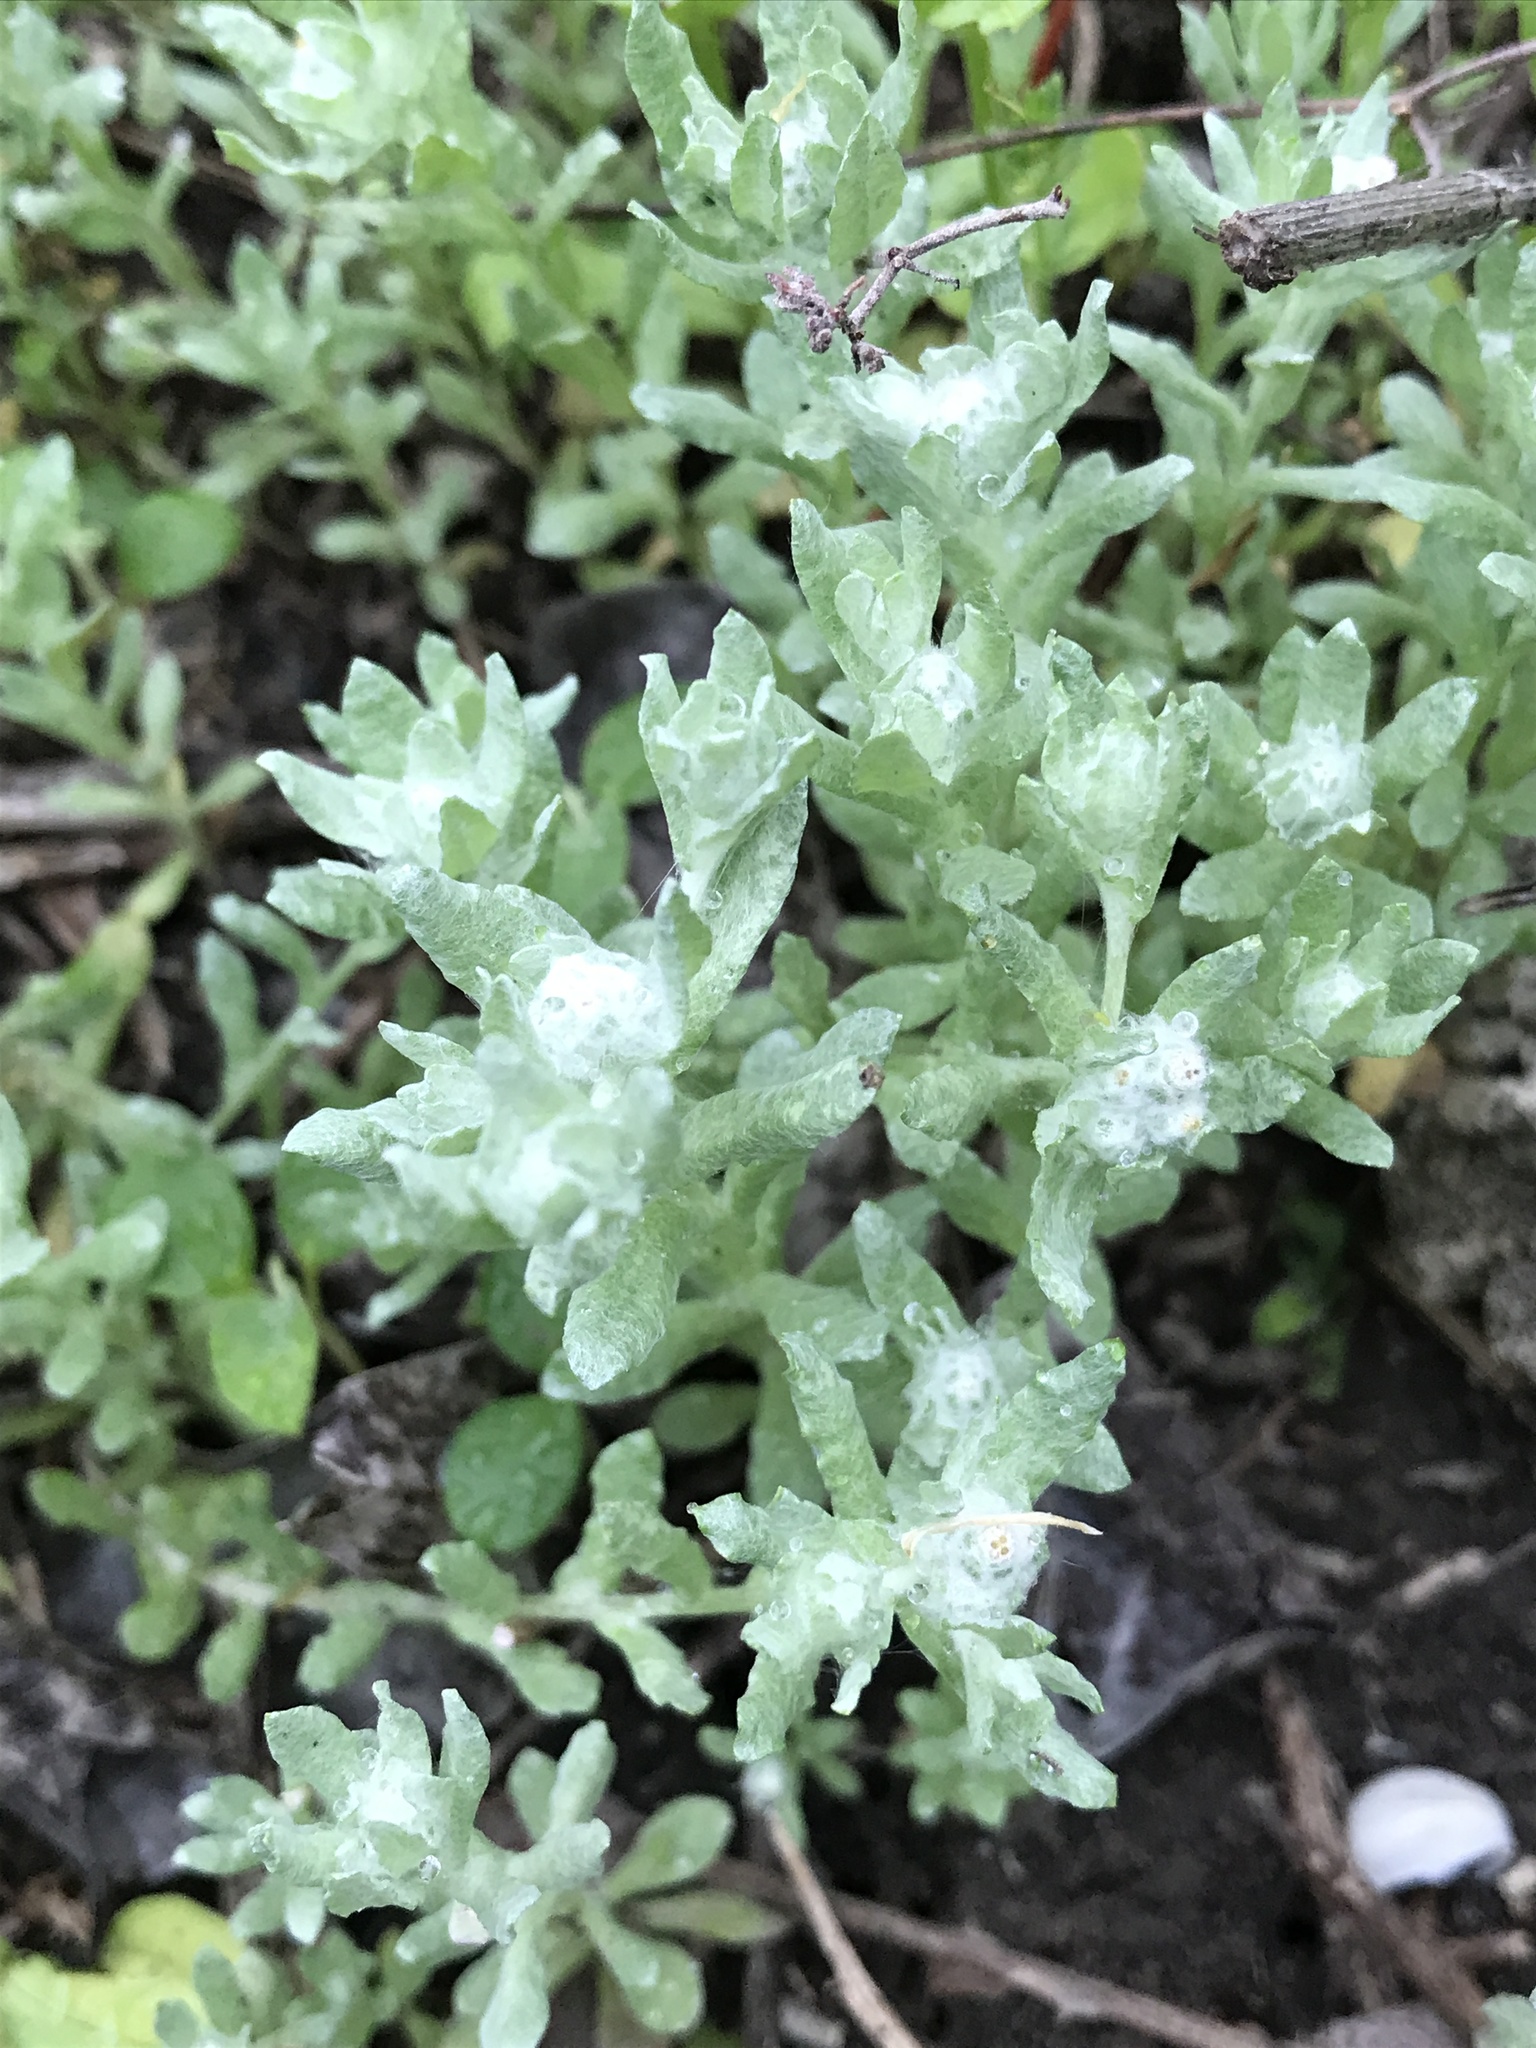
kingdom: Plantae
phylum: Tracheophyta
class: Magnoliopsida
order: Asterales
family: Asteraceae
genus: Diaperia
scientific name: Diaperia verna
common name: Many-stem rabbit-tobacco
